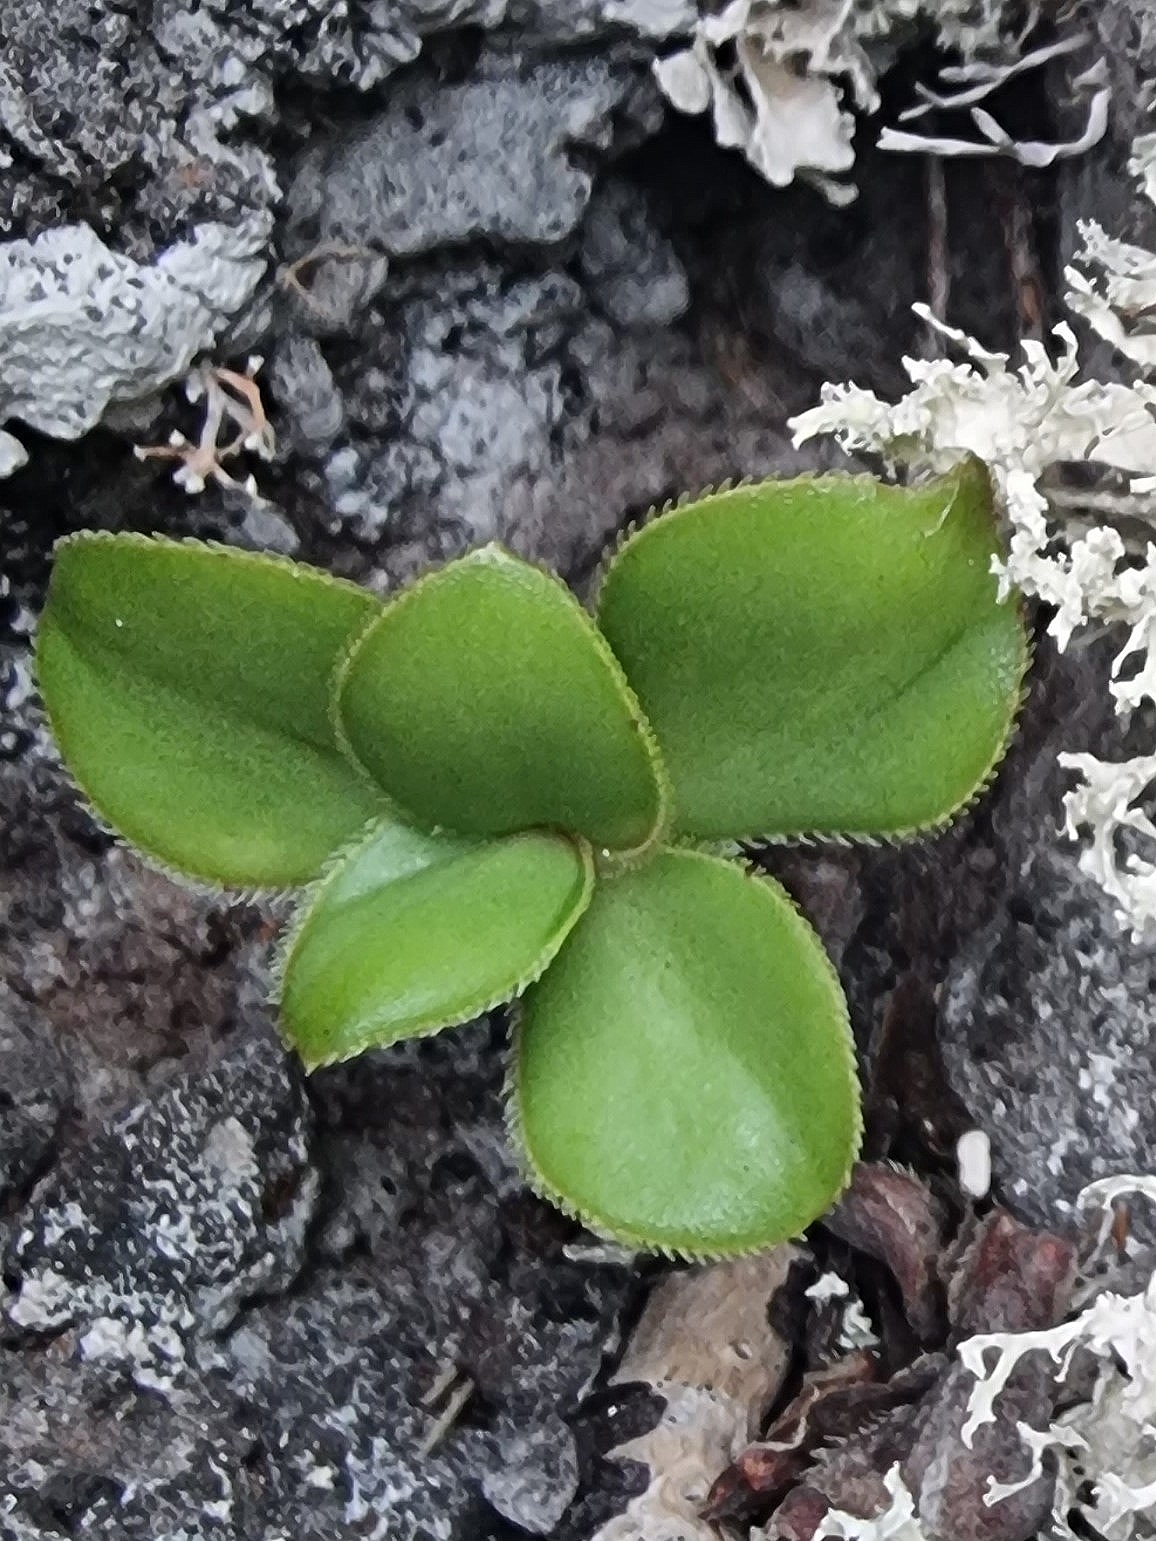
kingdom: Plantae
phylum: Tracheophyta
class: Magnoliopsida
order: Saxifragales
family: Crassulaceae
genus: Aeonium
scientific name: Aeonium glutinosum
